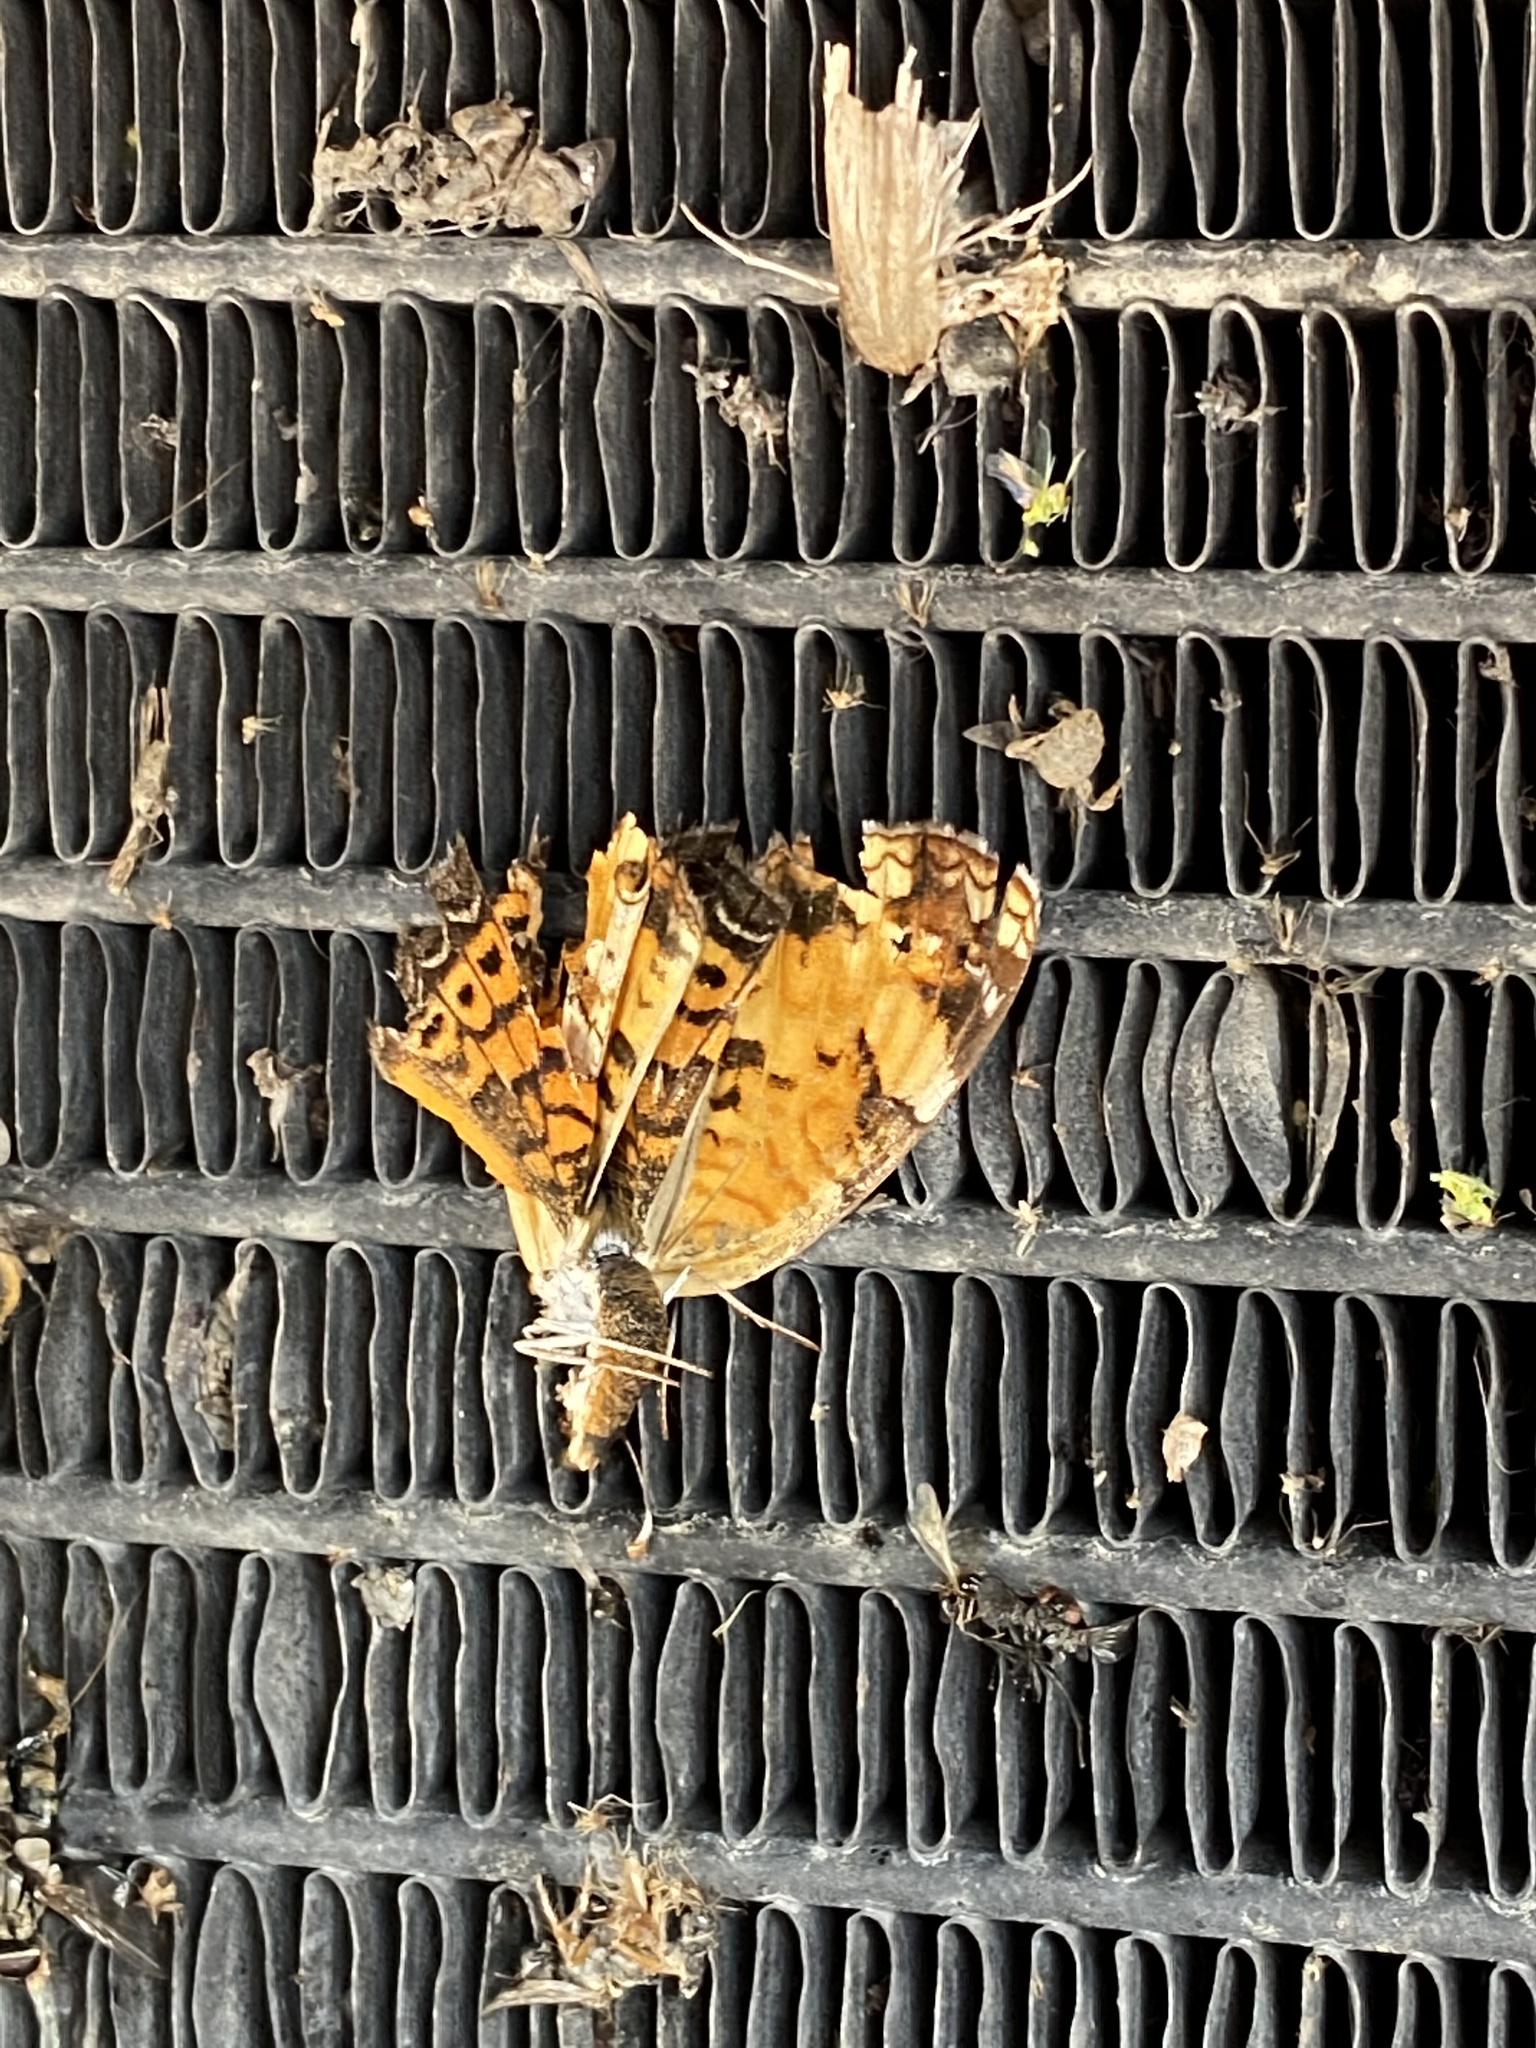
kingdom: Animalia
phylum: Arthropoda
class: Insecta
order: Lepidoptera
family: Nymphalidae
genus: Phyciodes
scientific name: Phyciodes tharos
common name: Pearl crescent
